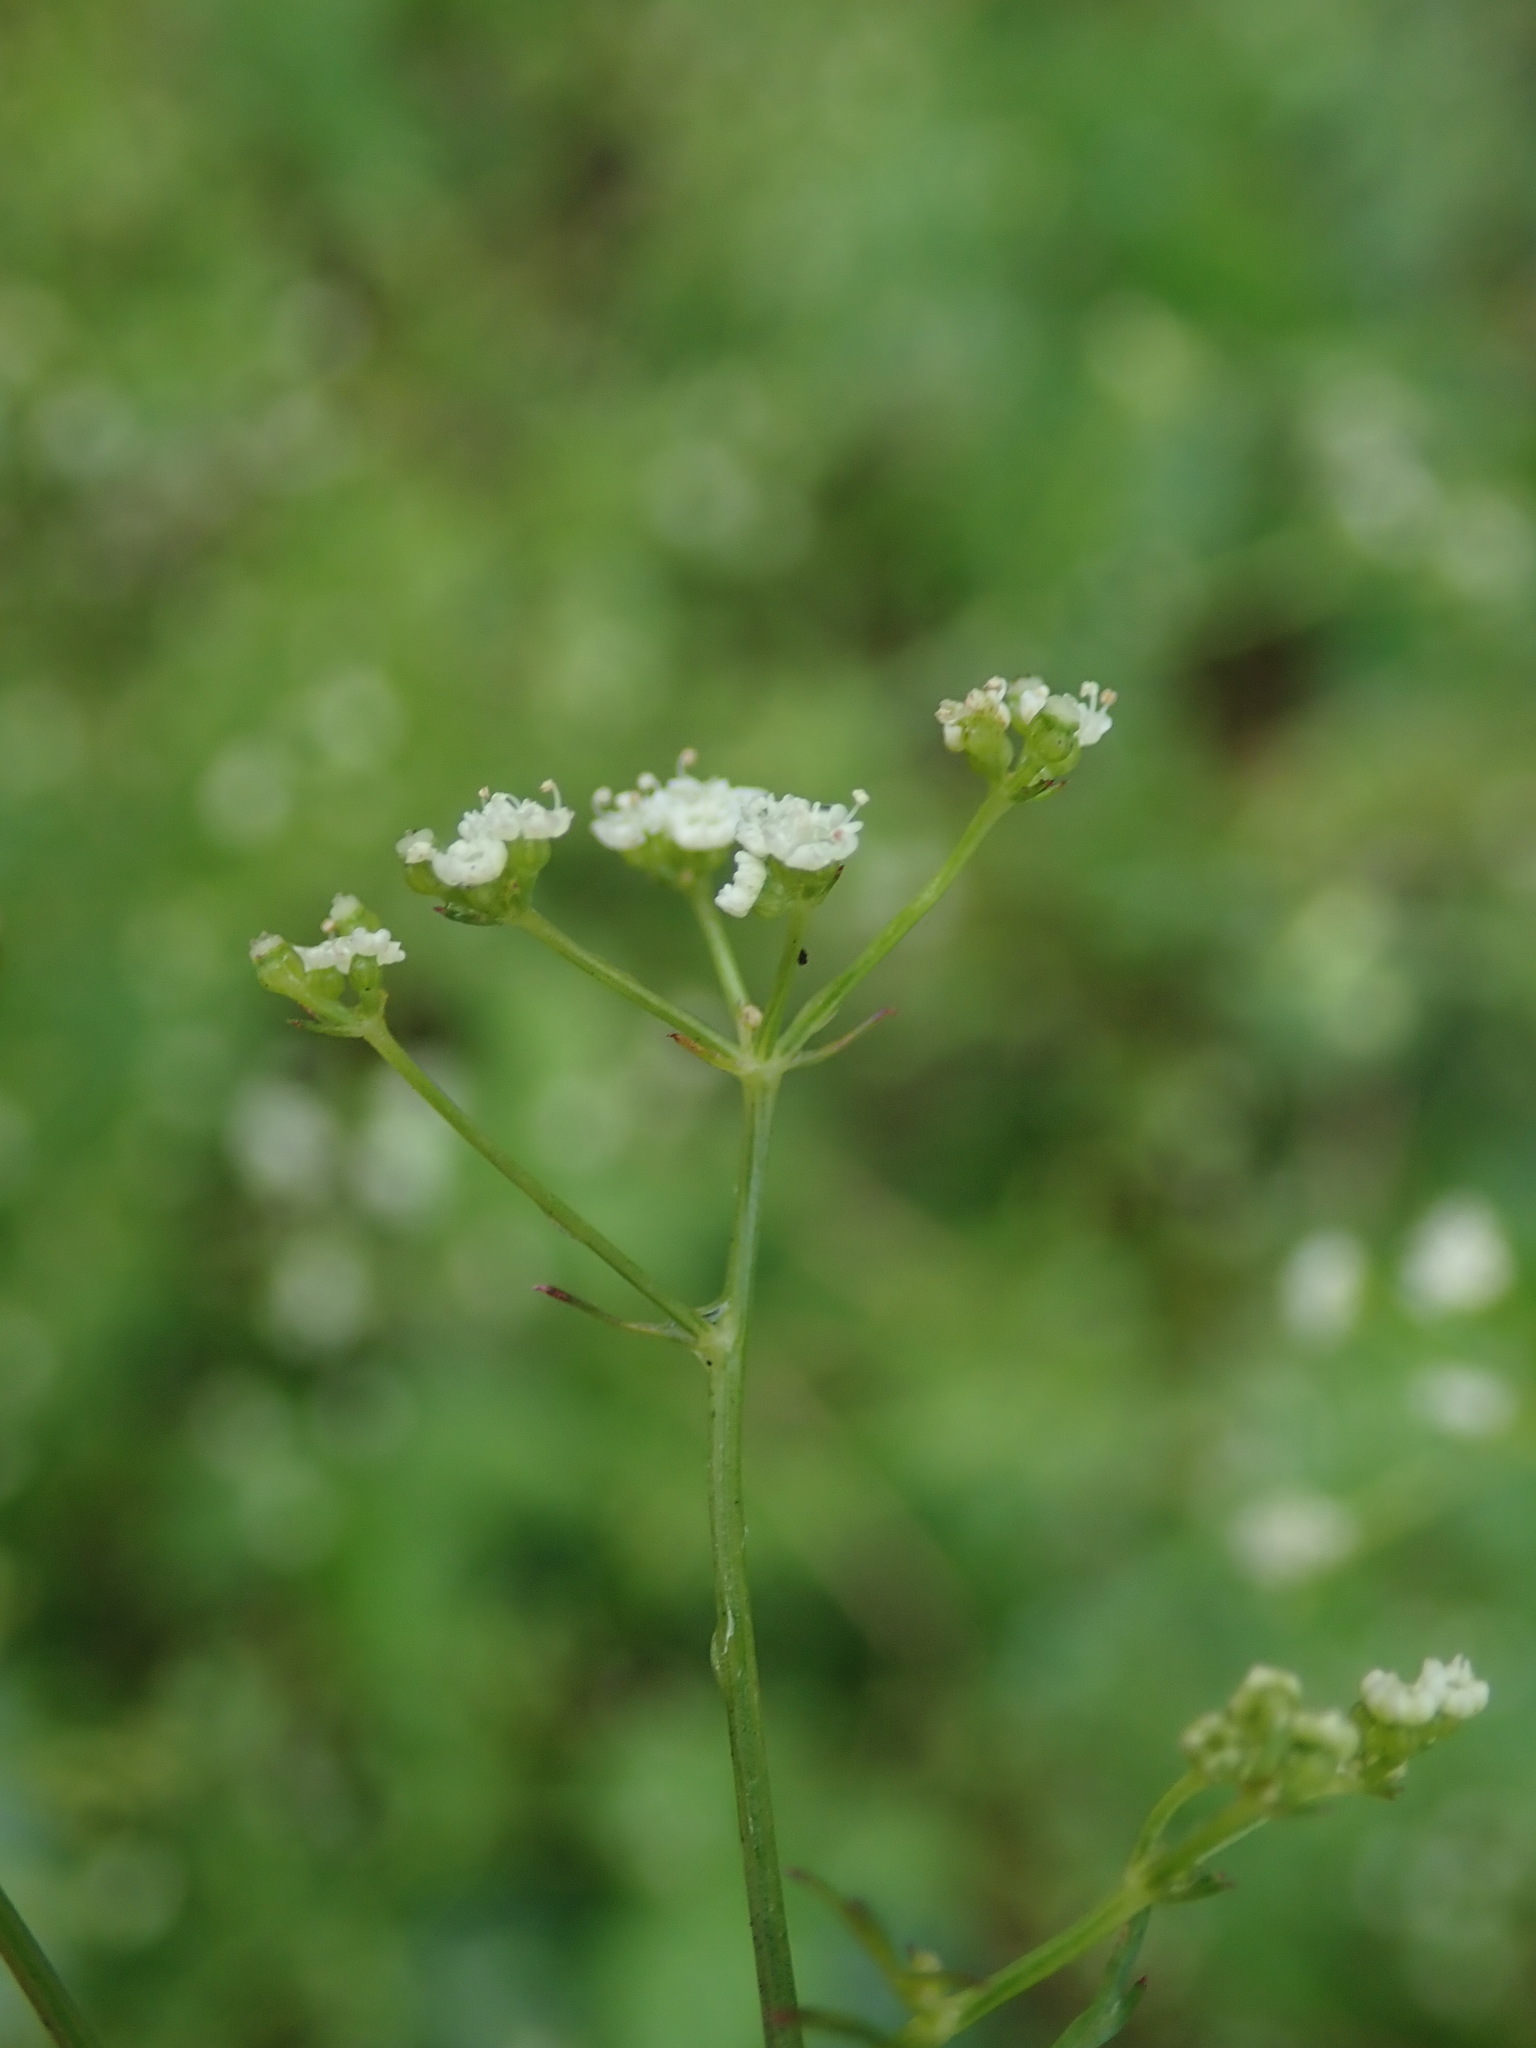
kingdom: Plantae
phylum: Tracheophyta
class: Magnoliopsida
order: Apiales
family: Apiaceae
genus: Sison
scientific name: Sison amomum
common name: Stone-parsley
